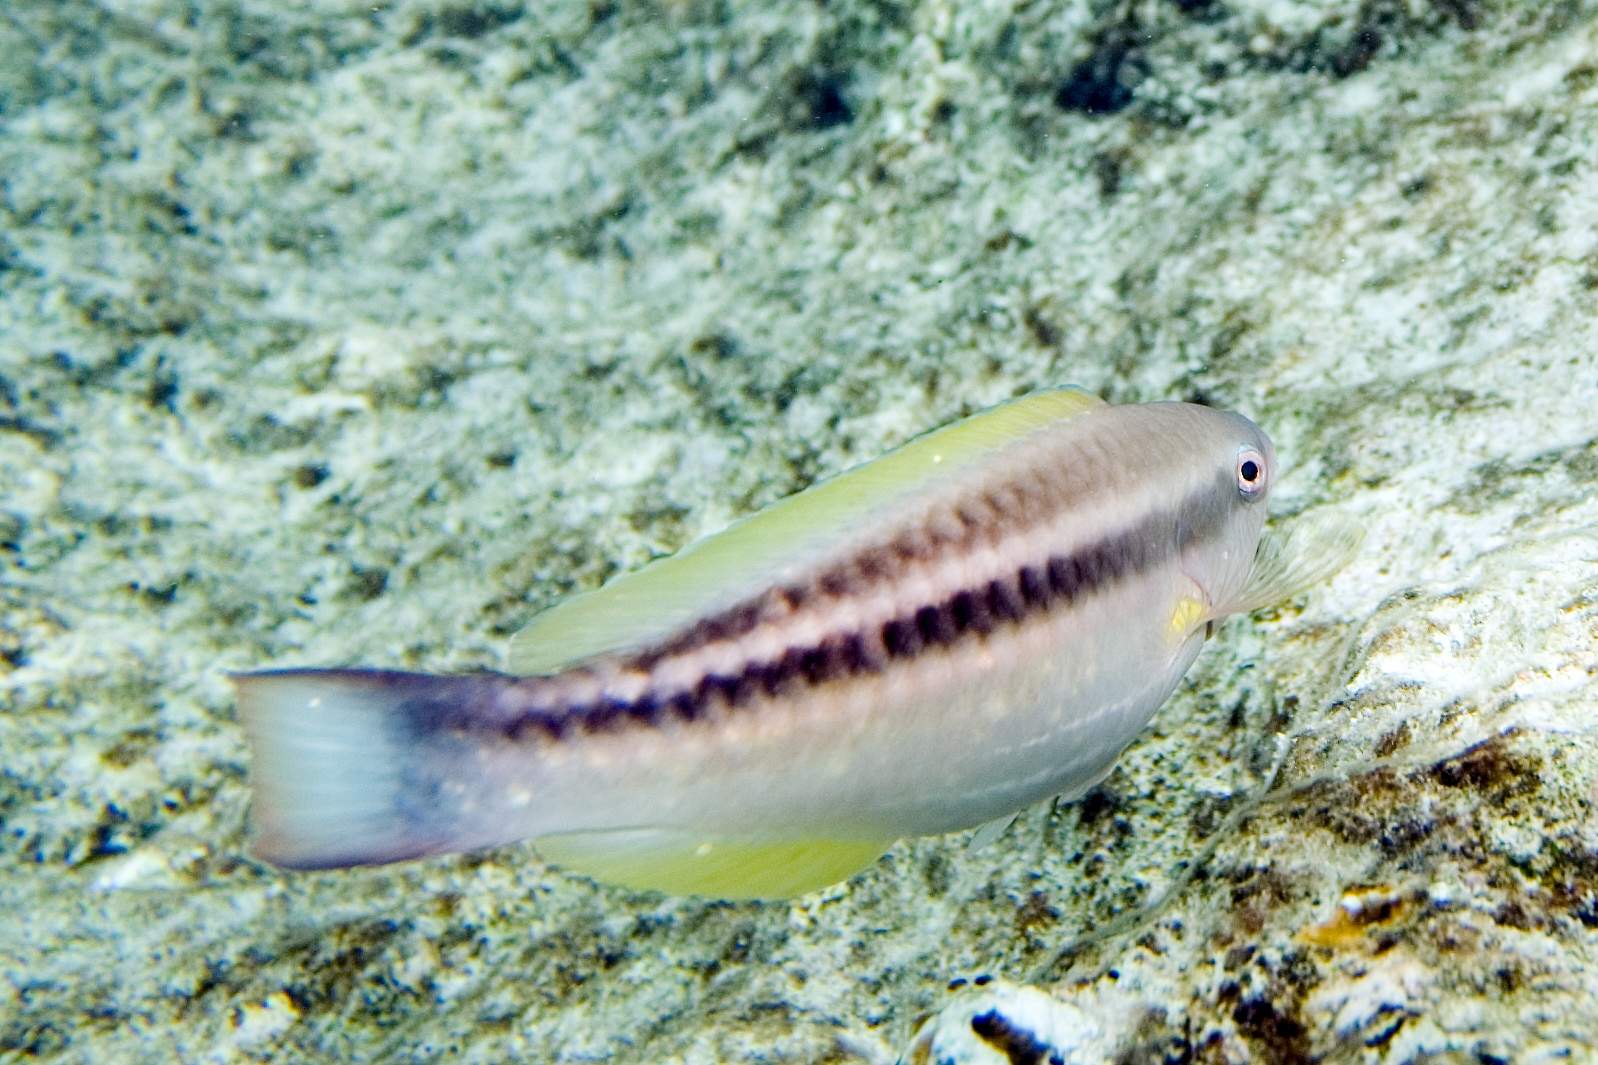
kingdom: Animalia
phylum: Chordata
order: Perciformes
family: Scaridae
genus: Scarus
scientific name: Scarus taeniopterus
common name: Princess parrotfish
